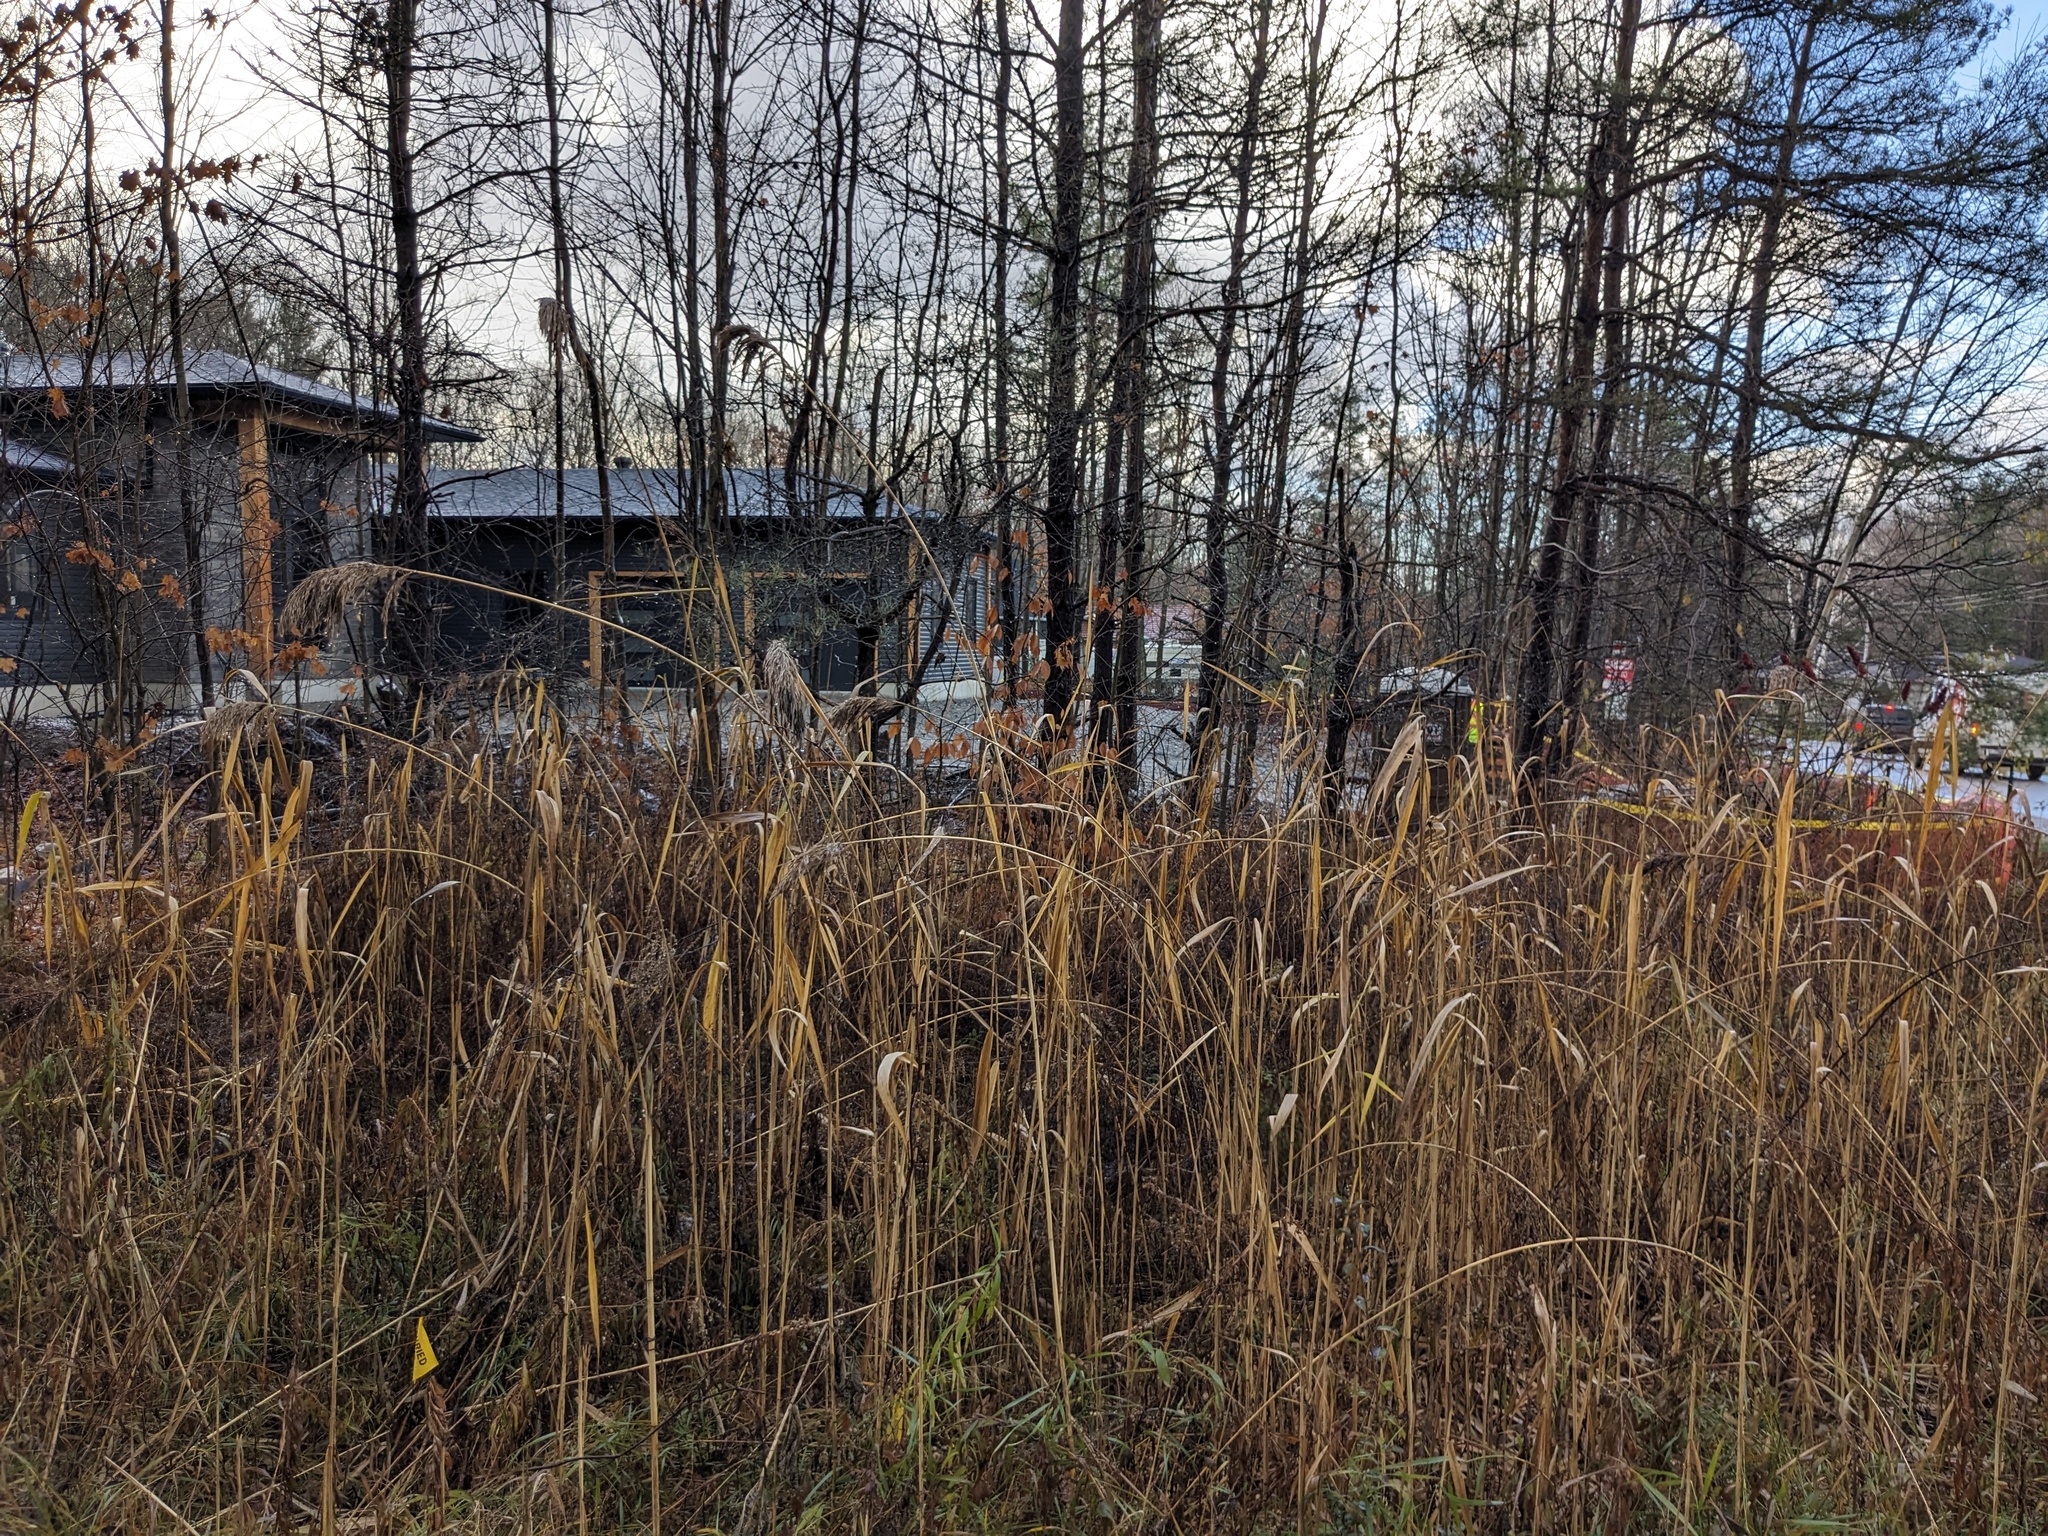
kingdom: Plantae
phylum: Tracheophyta
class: Liliopsida
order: Poales
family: Poaceae
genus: Phragmites
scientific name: Phragmites australis
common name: Common reed
